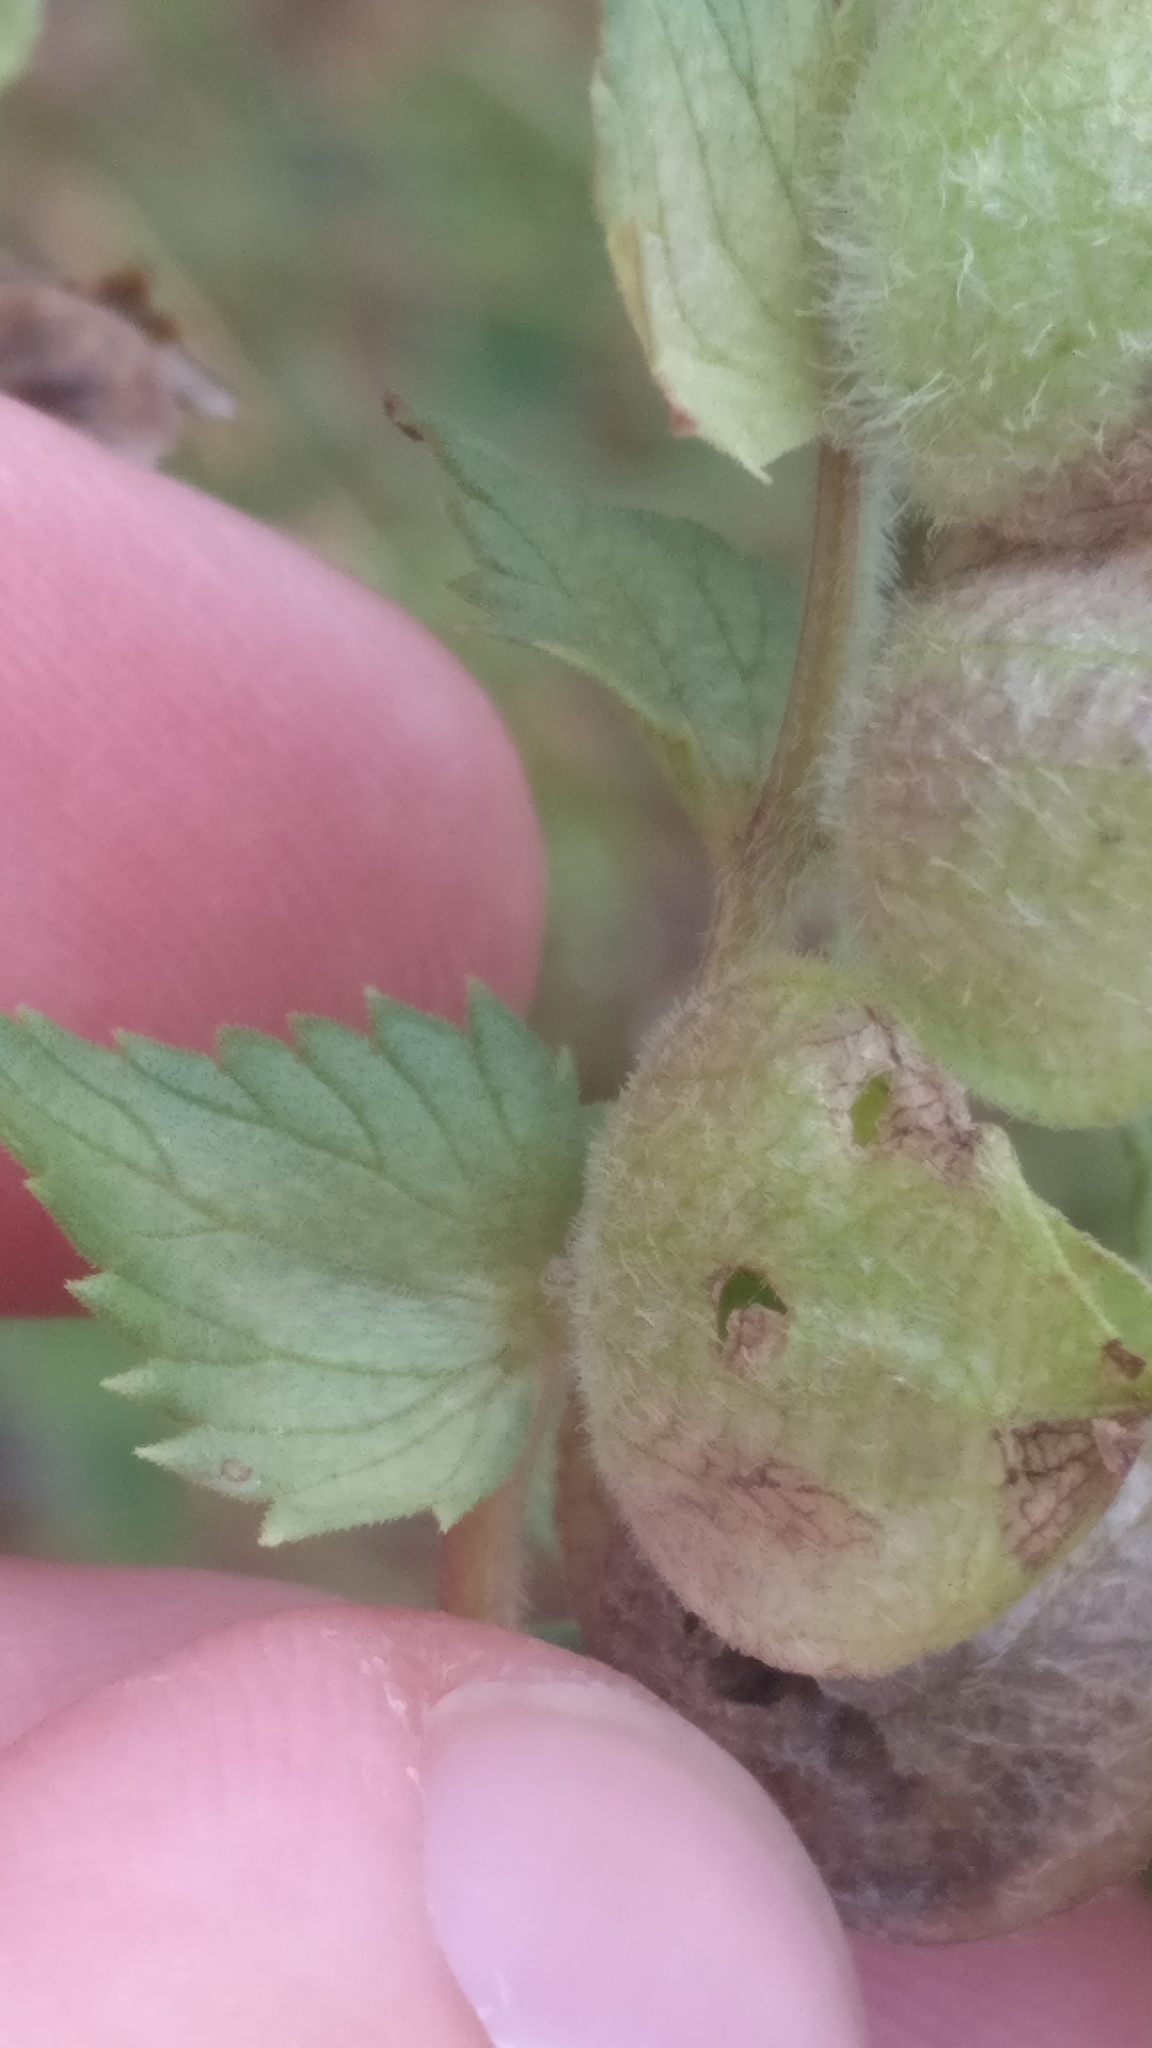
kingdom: Plantae
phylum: Tracheophyta
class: Magnoliopsida
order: Lamiales
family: Orobanchaceae
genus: Rhinanthus
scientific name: Rhinanthus alectorolophus
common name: Greater yellow-rattle
